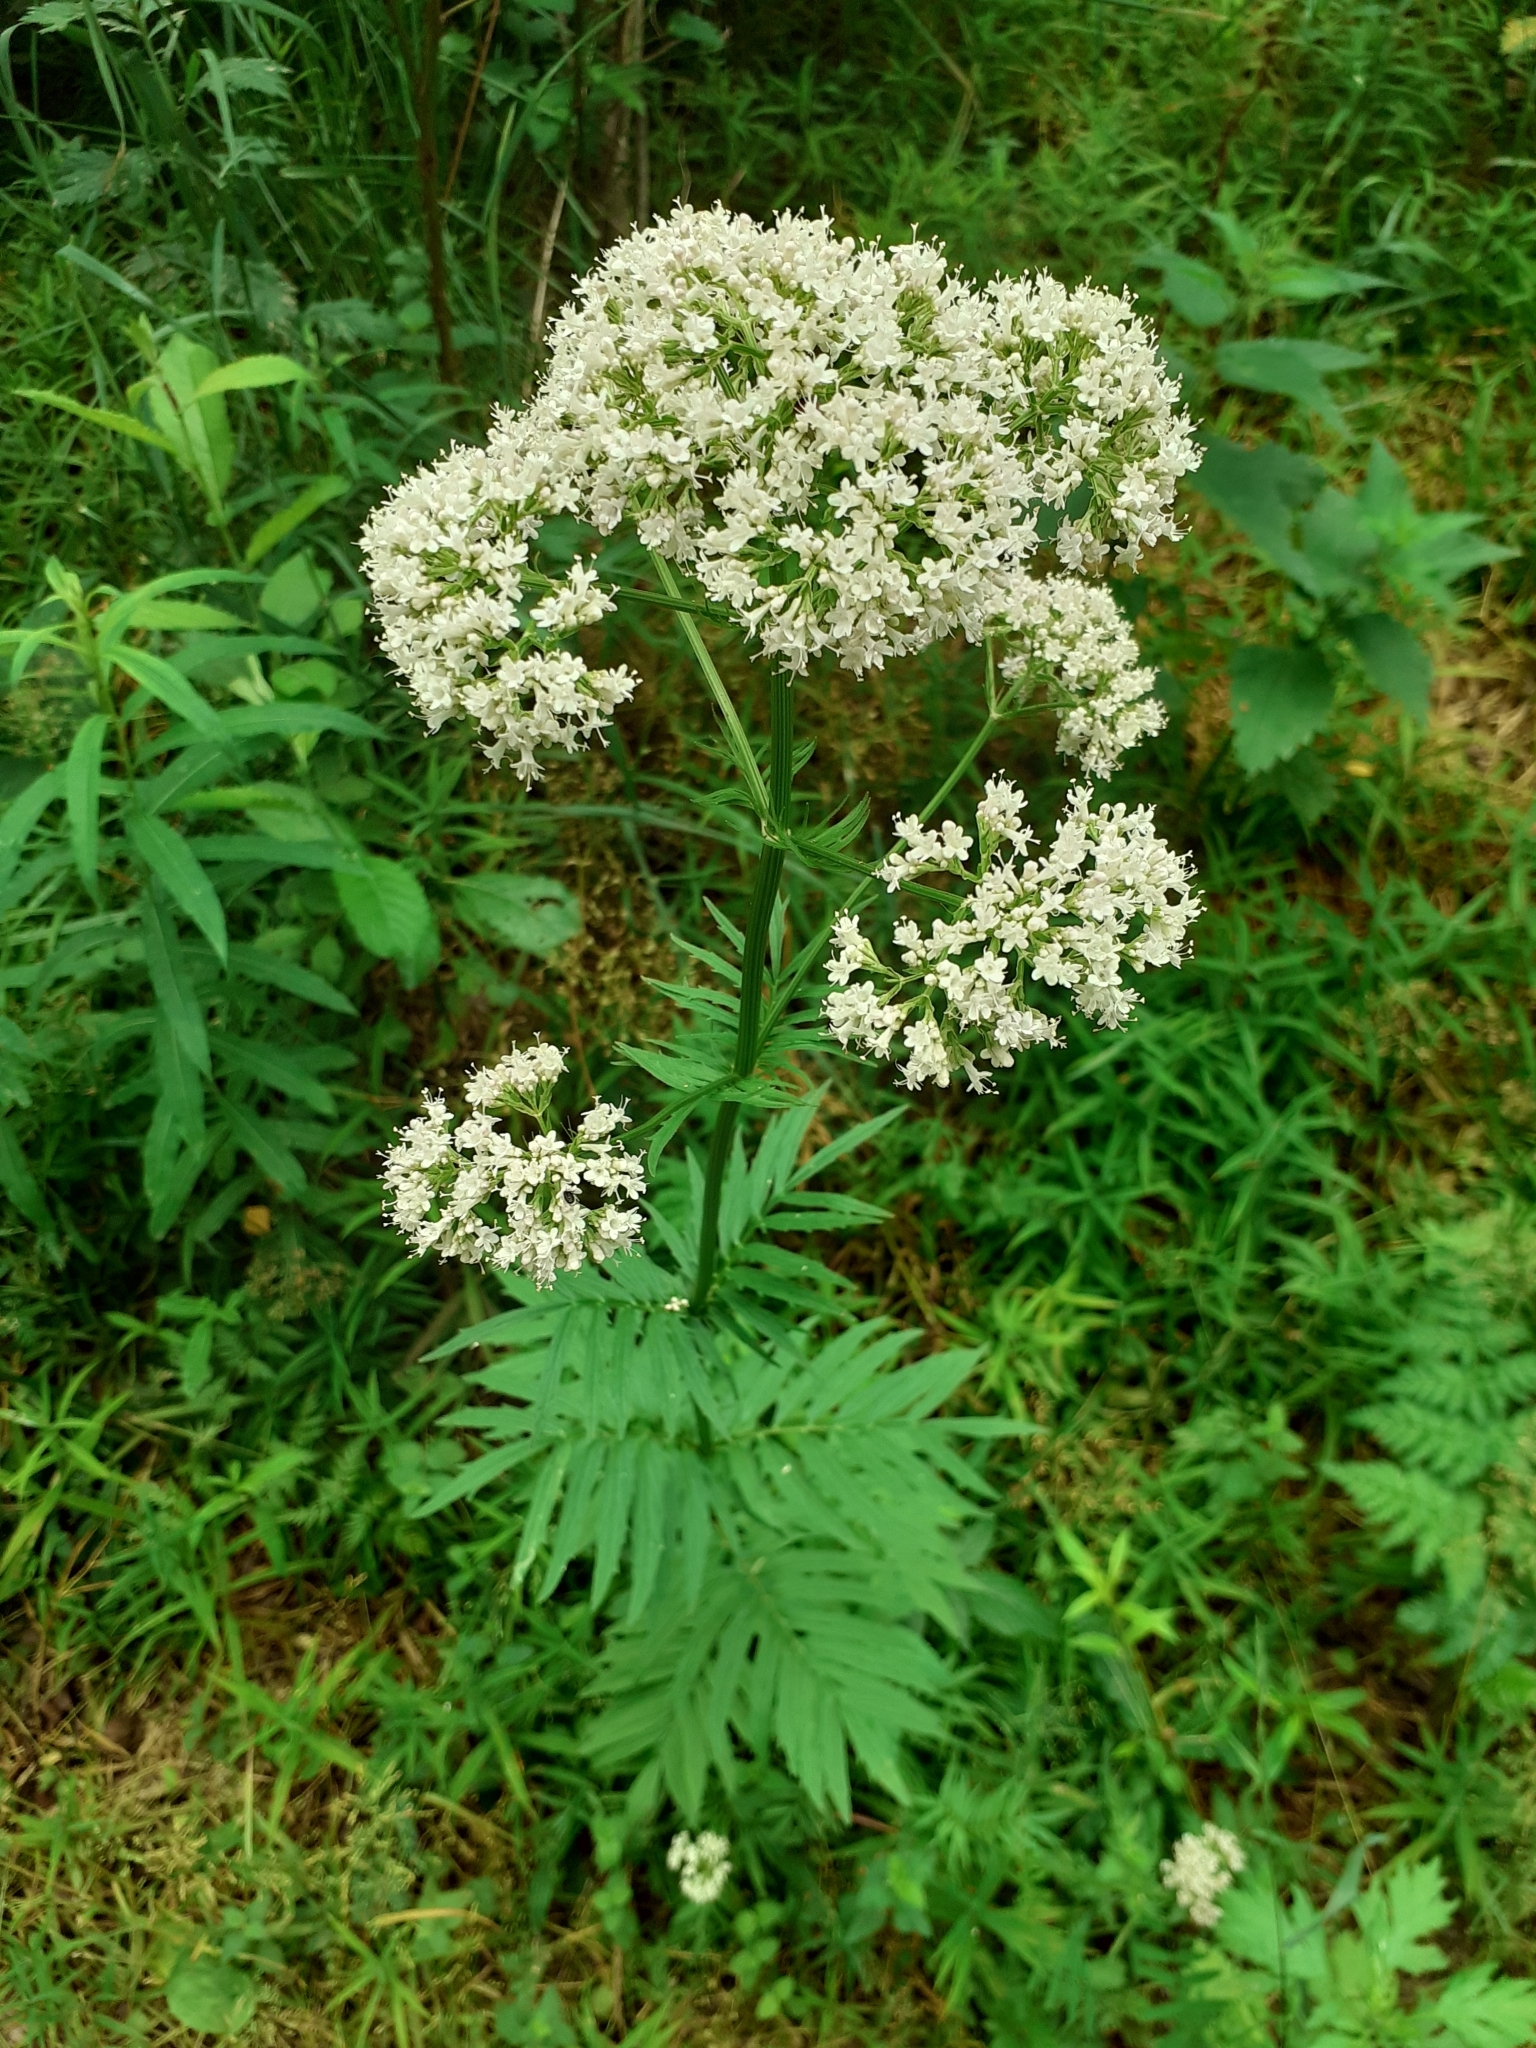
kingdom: Plantae
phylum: Tracheophyta
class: Magnoliopsida
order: Dipsacales
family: Caprifoliaceae
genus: Valeriana
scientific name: Valeriana officinalis
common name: Common valerian
